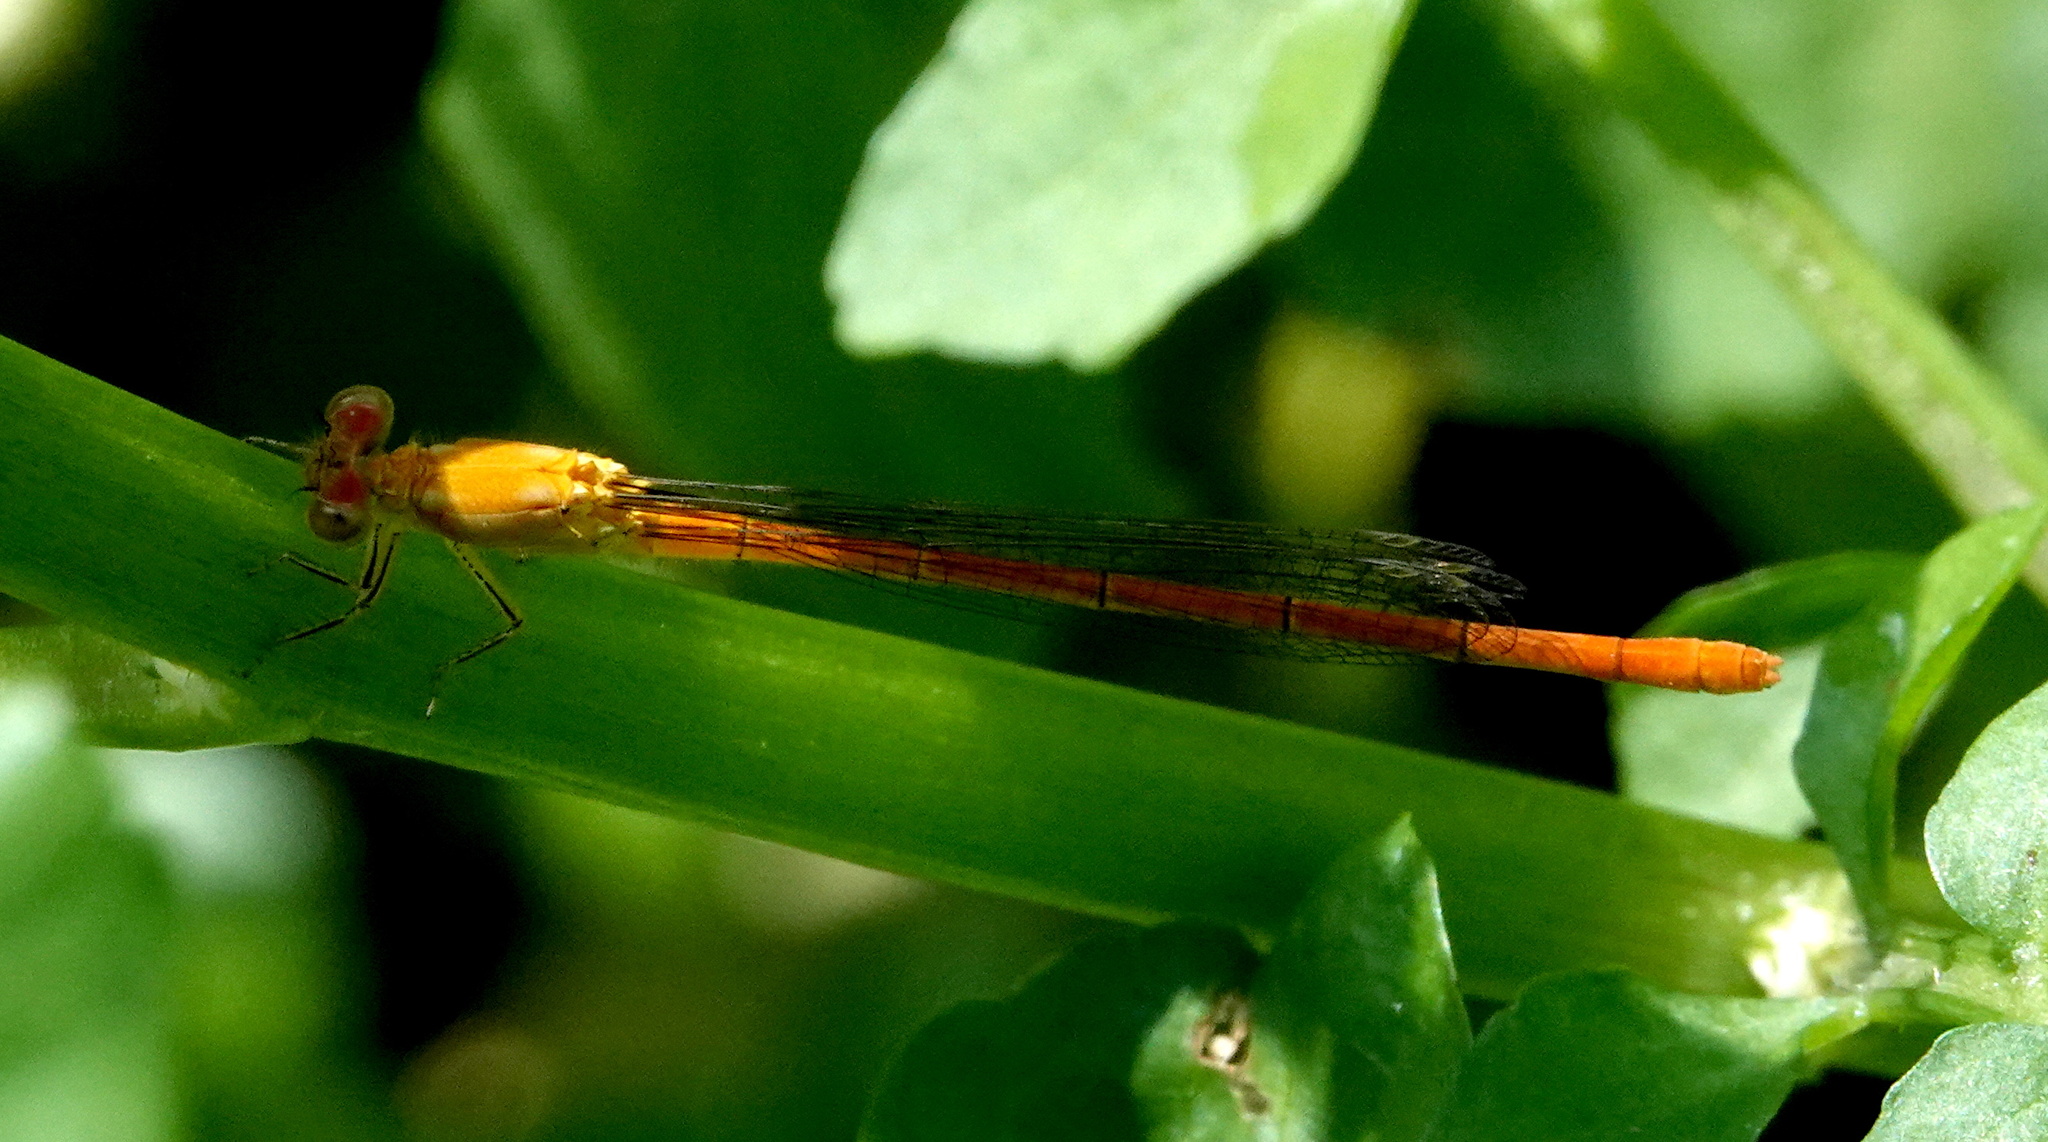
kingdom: Animalia
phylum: Arthropoda
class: Insecta
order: Odonata
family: Coenagrionidae
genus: Hesperagrion
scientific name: Hesperagrion heterodoxum
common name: Painted damsel
